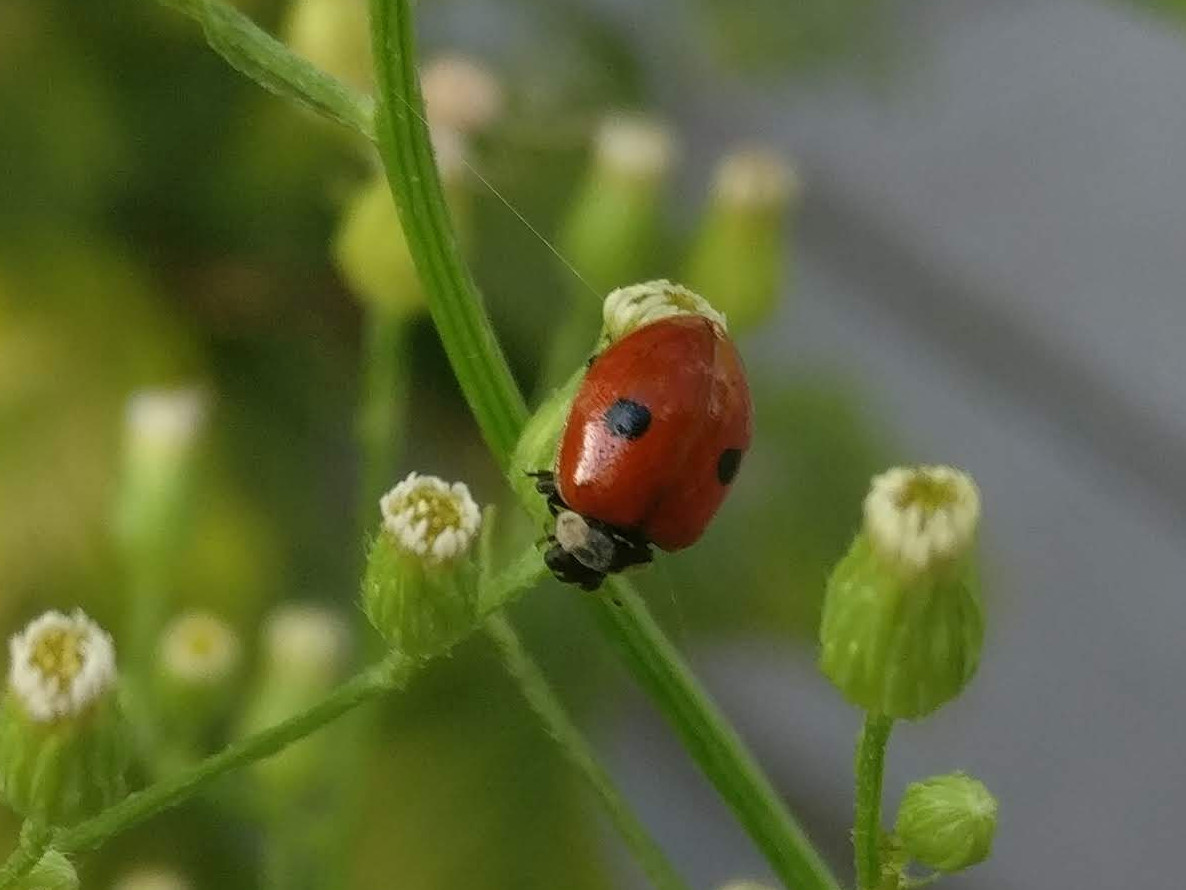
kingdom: Animalia
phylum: Arthropoda
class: Insecta
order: Coleoptera
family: Coccinellidae
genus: Adalia
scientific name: Adalia bipunctata
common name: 2-spot ladybird
